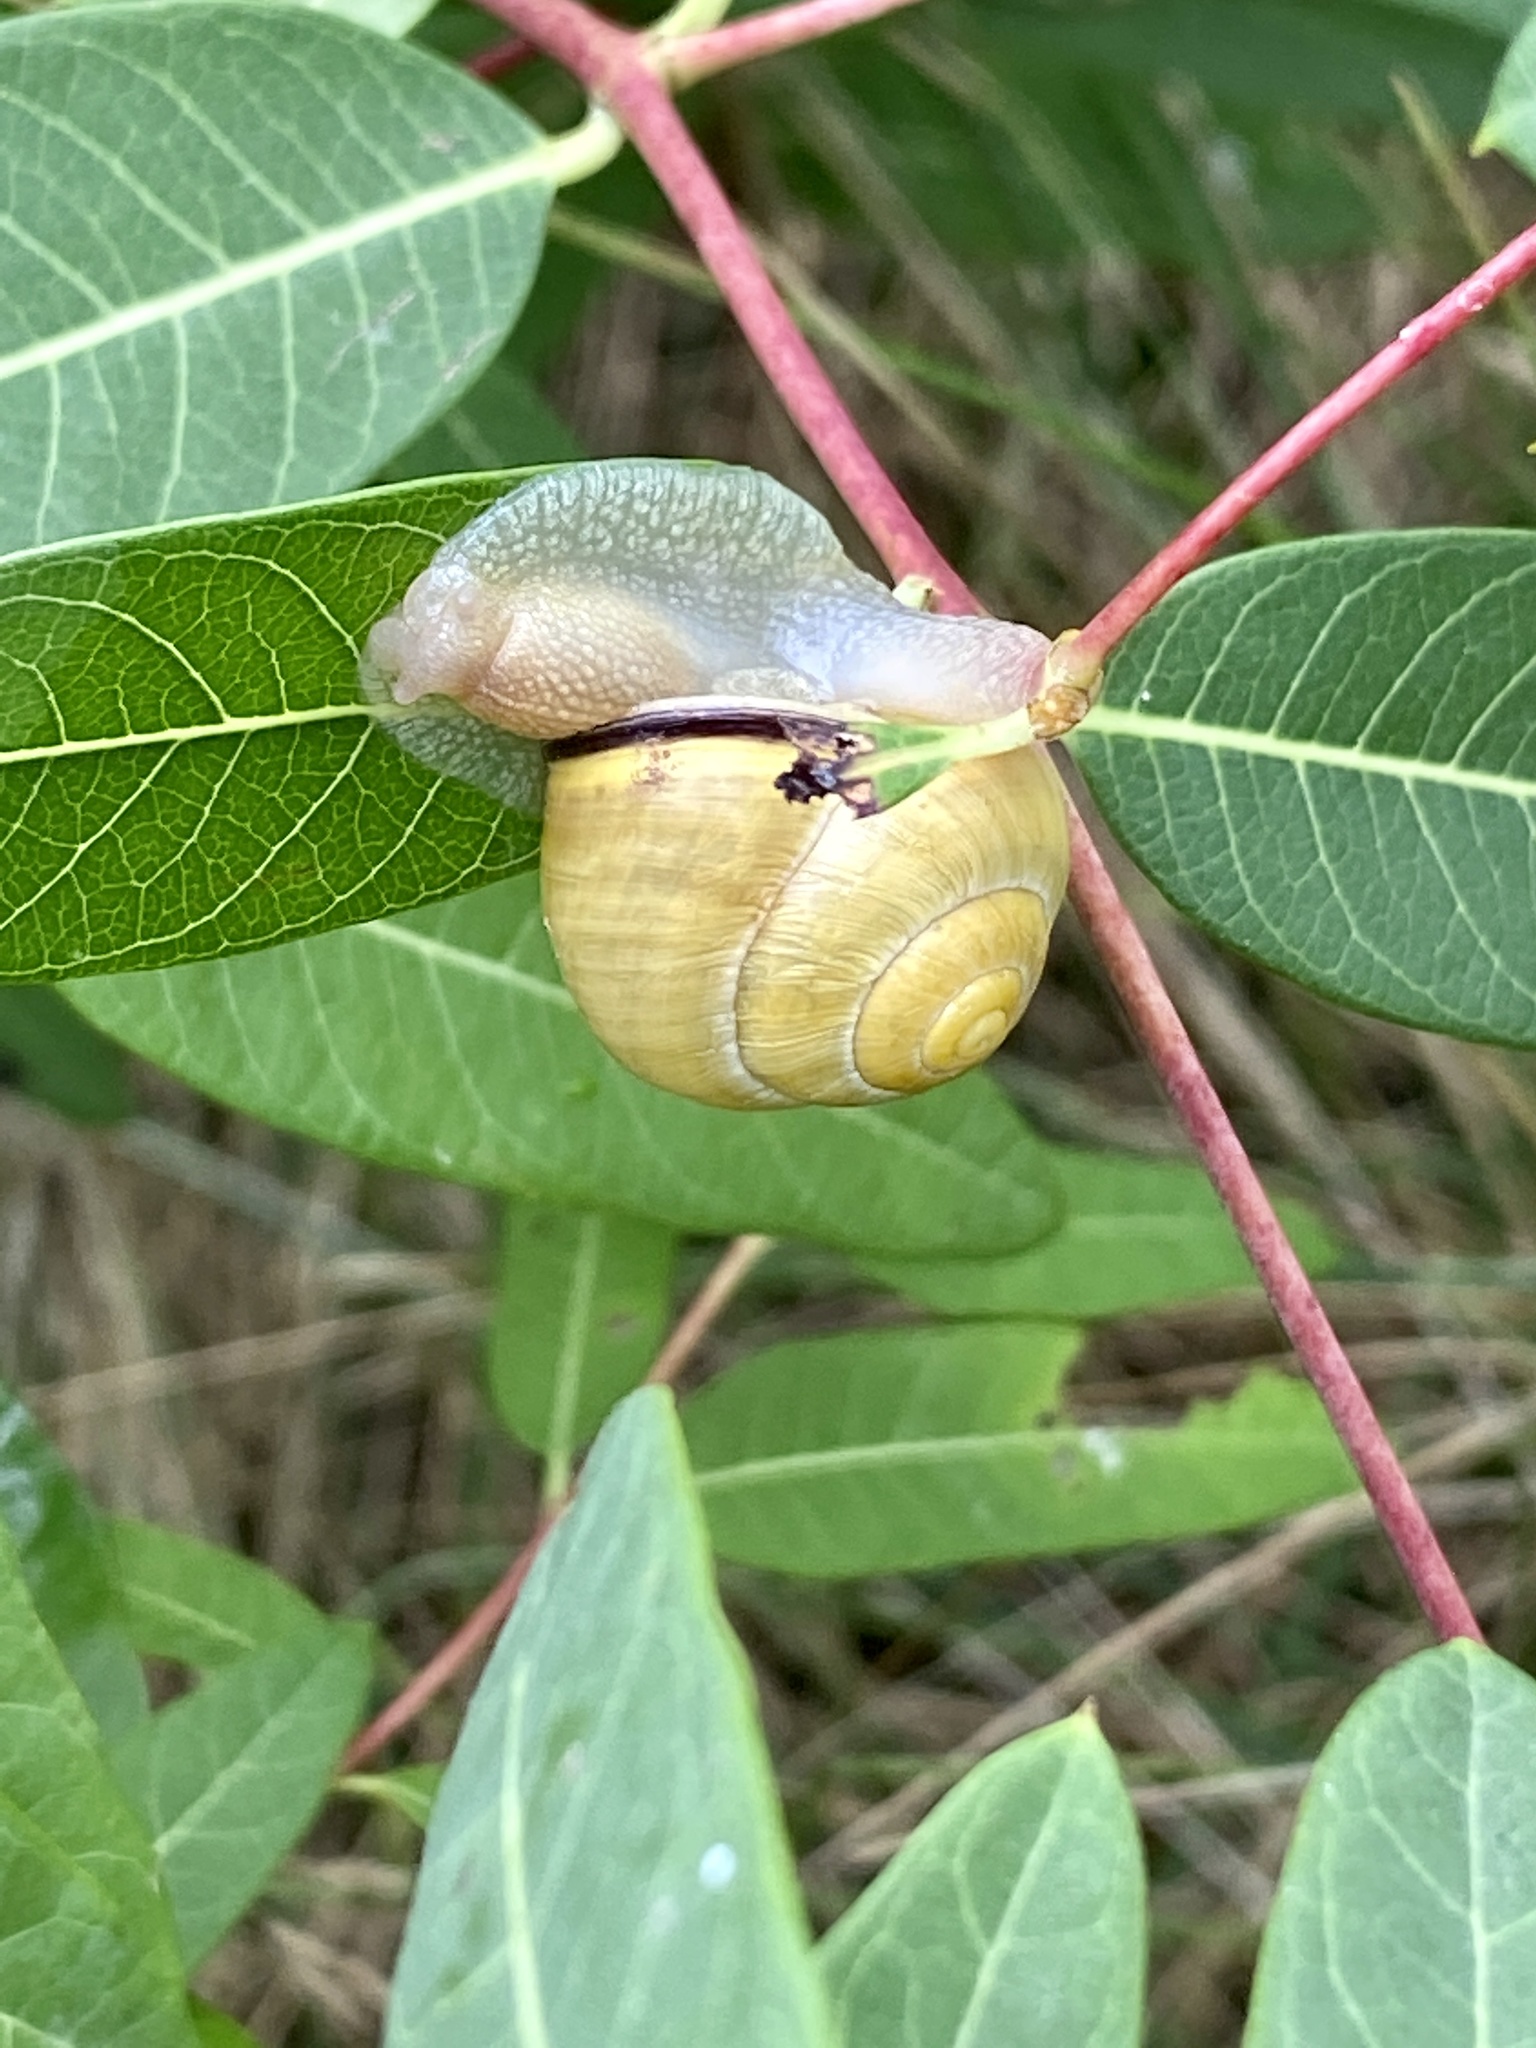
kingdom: Animalia
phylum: Mollusca
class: Gastropoda
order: Stylommatophora
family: Helicidae
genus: Cepaea
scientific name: Cepaea nemoralis
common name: Grovesnail
